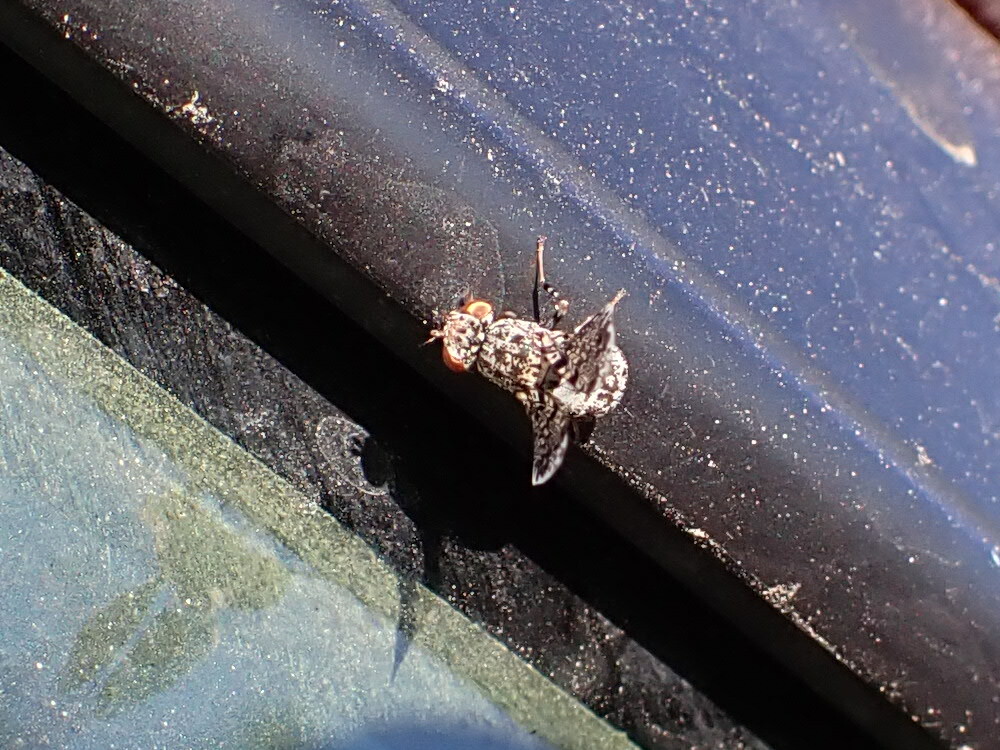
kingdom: Animalia
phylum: Arthropoda
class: Insecta
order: Diptera
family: Ulidiidae
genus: Callopistromyia
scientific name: Callopistromyia annulipes
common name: Peacock fly
